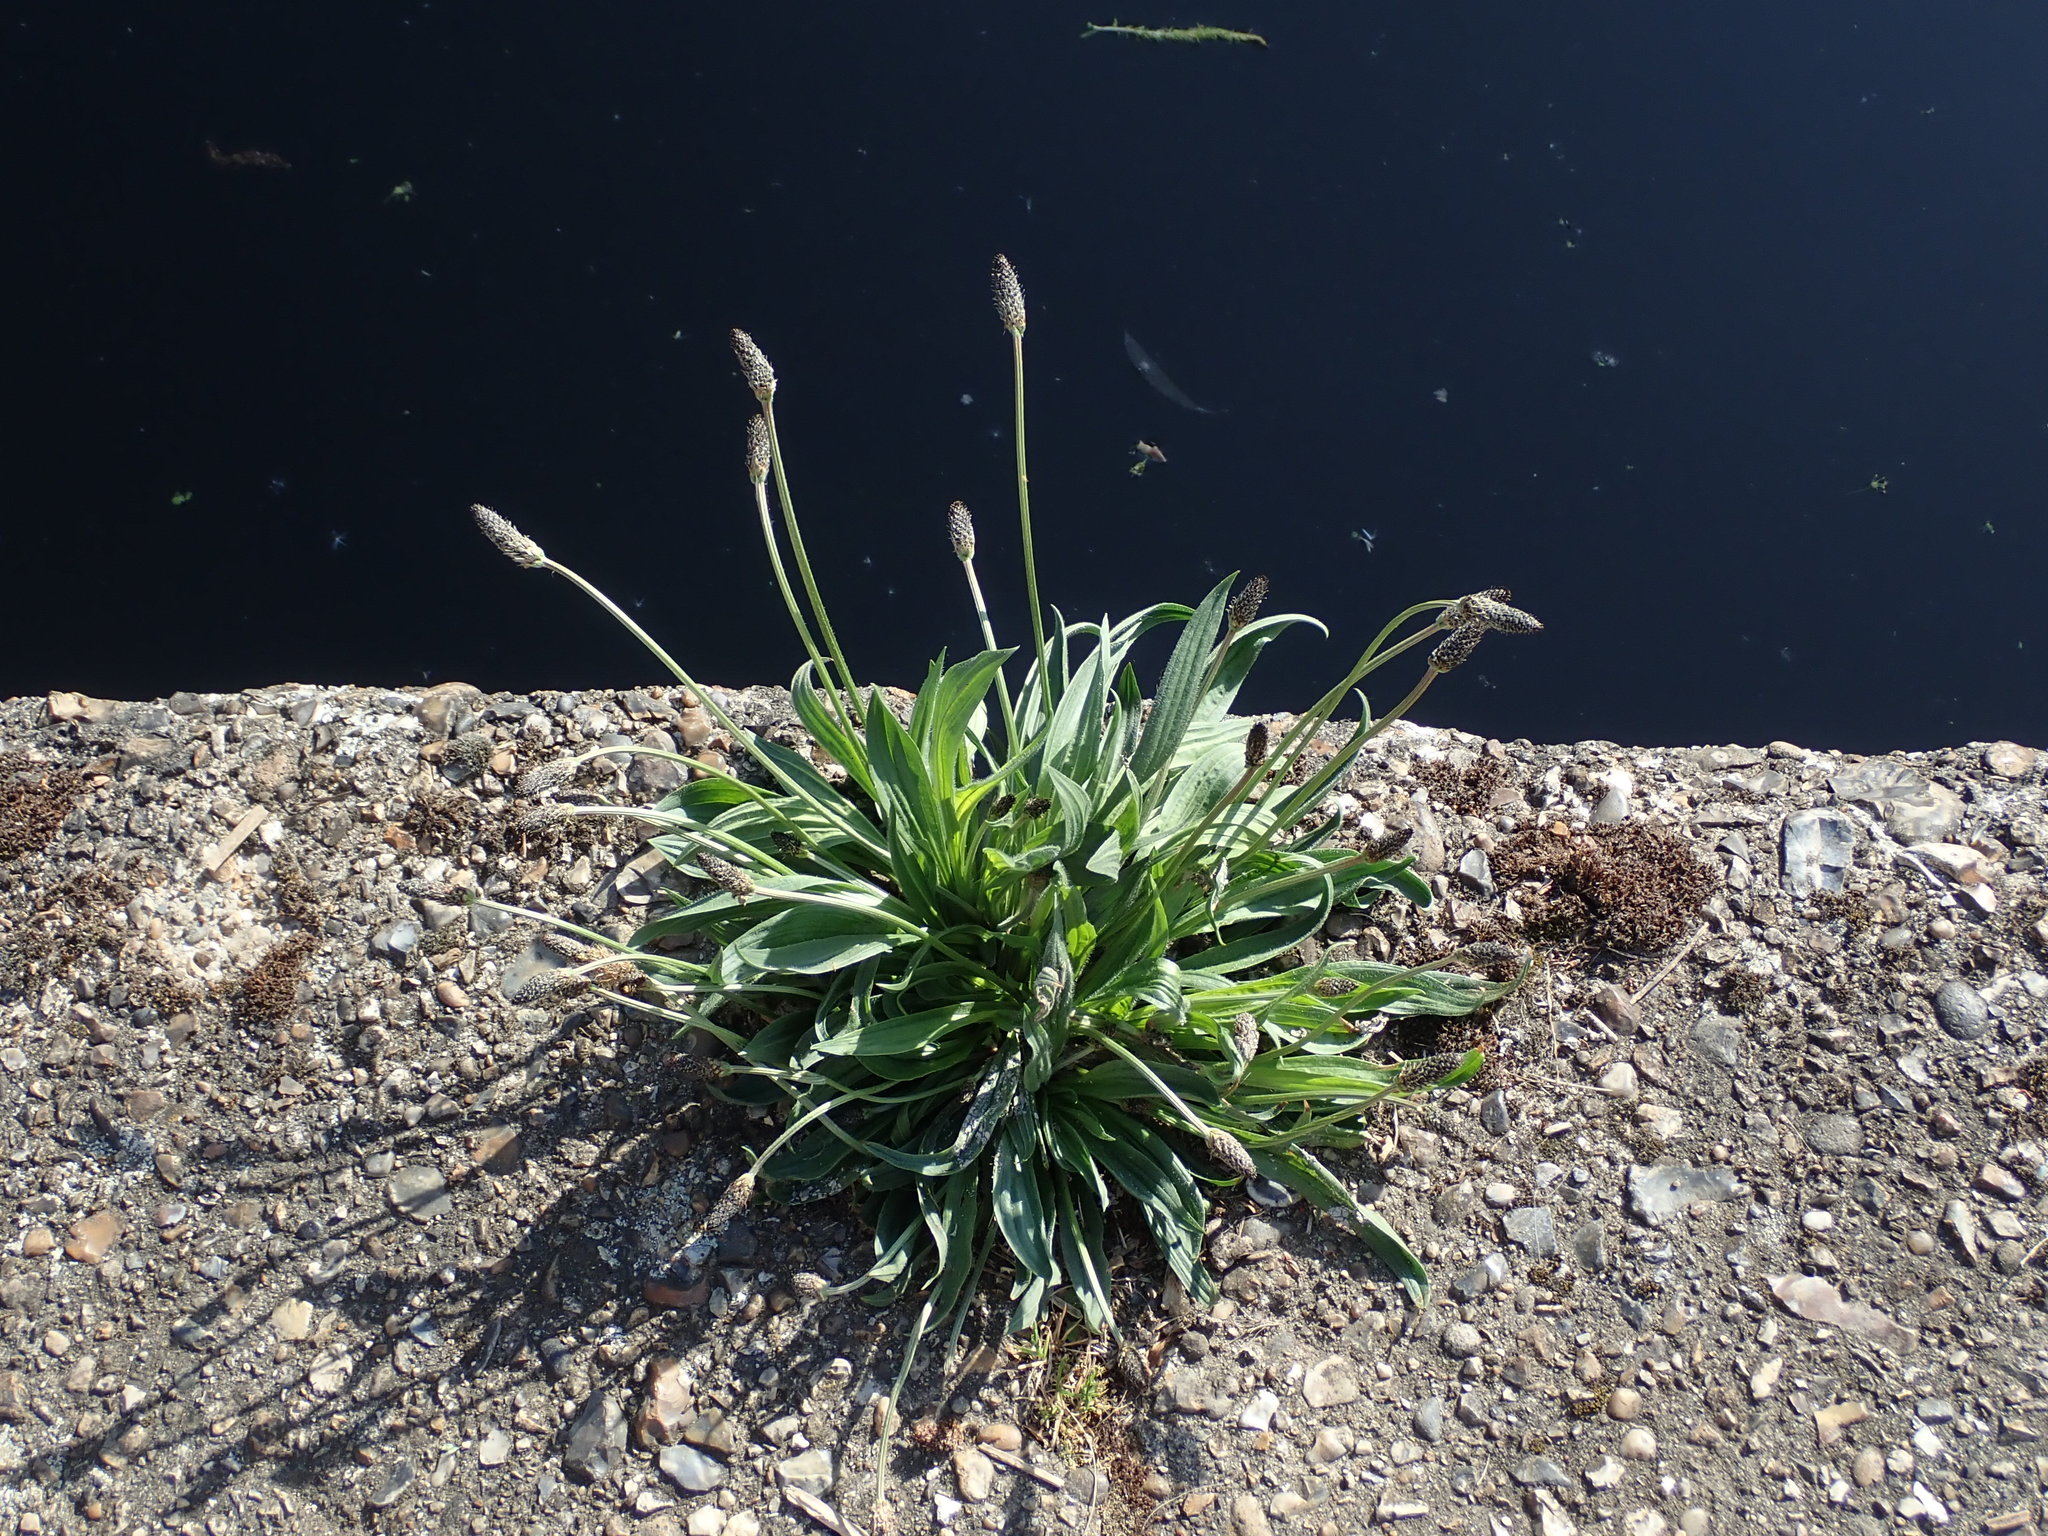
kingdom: Plantae
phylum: Tracheophyta
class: Magnoliopsida
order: Lamiales
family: Plantaginaceae
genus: Plantago
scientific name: Plantago lanceolata
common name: Ribwort plantain
